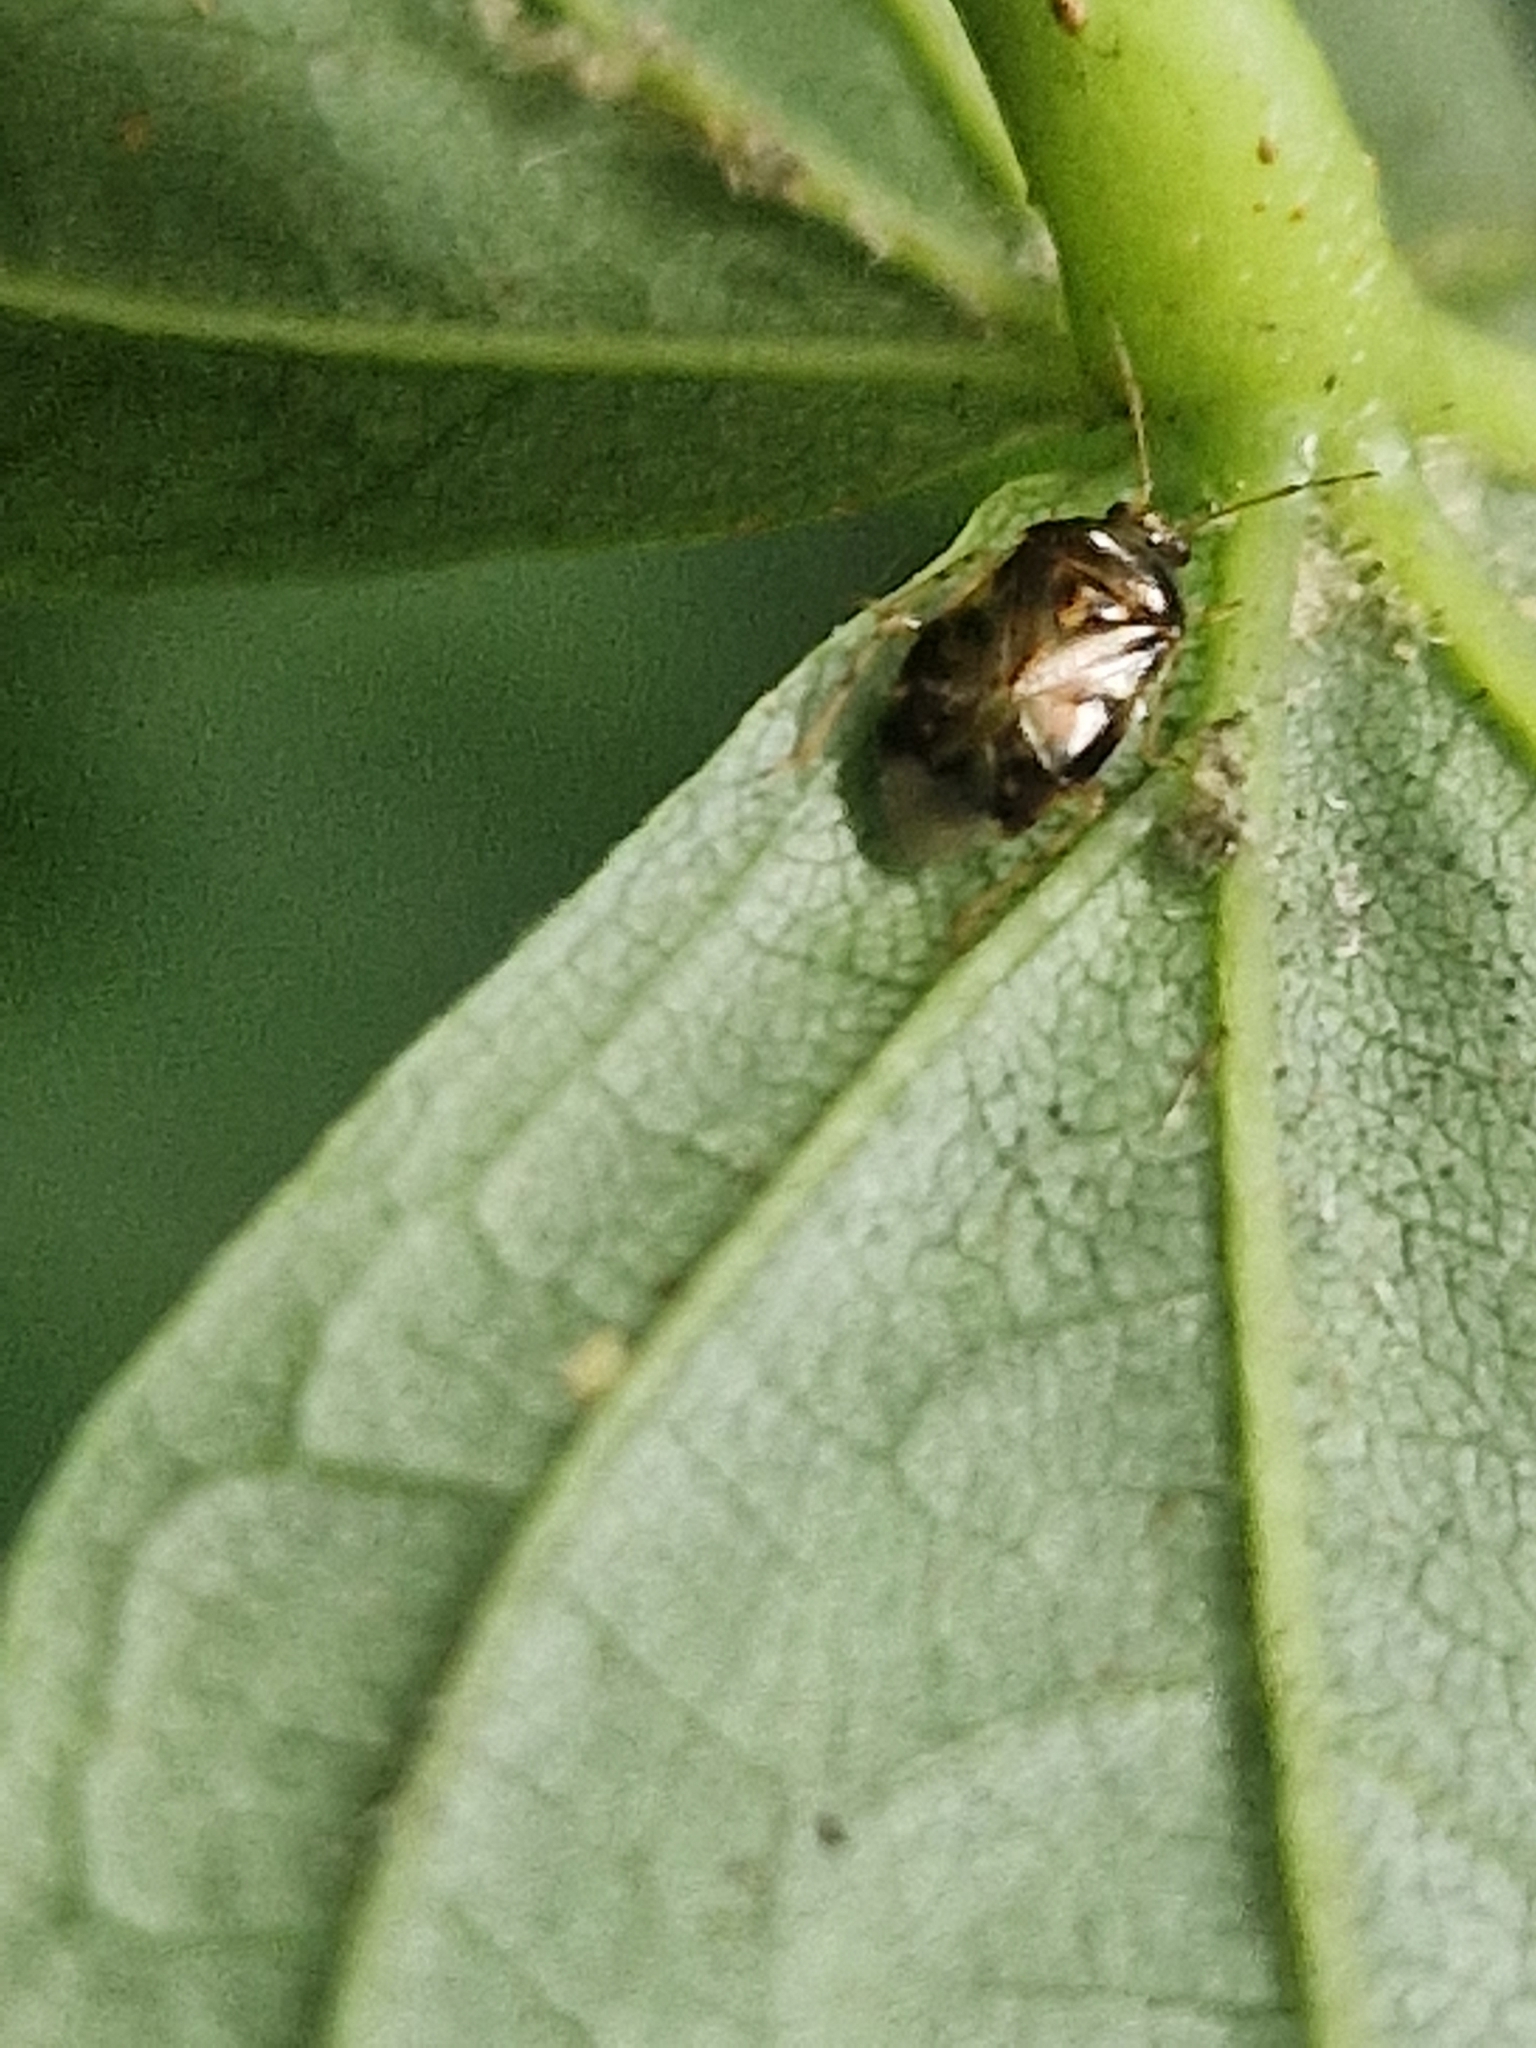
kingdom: Animalia
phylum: Arthropoda
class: Insecta
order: Hemiptera
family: Miridae
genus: Deraeocoris
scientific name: Deraeocoris lutescens
